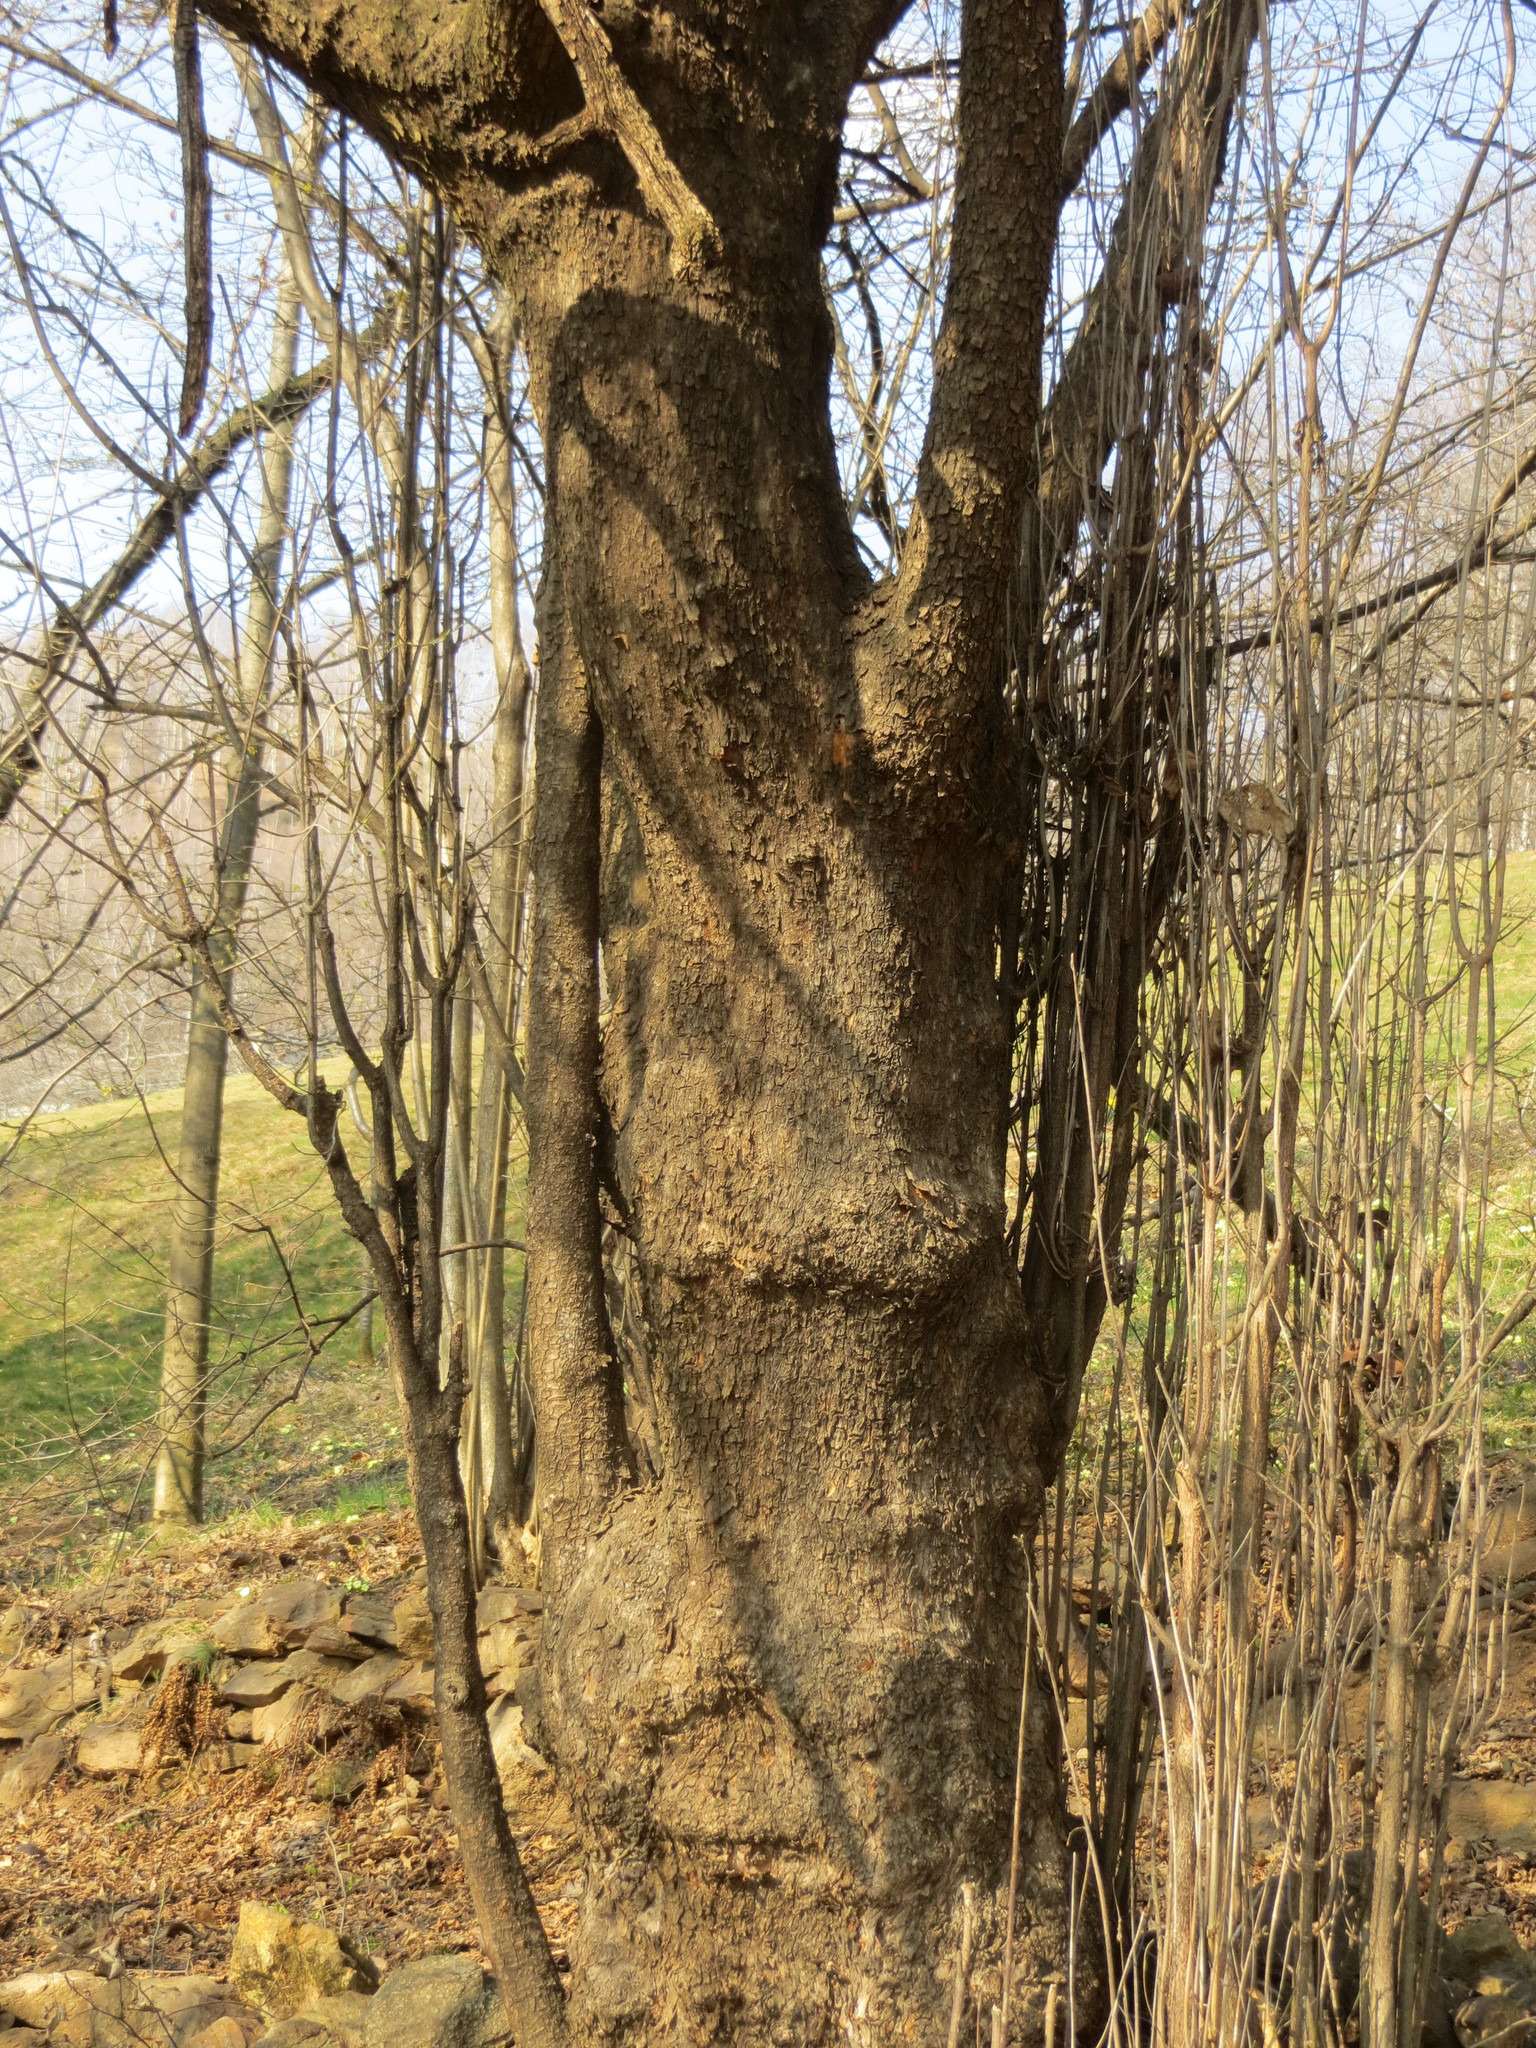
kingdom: Plantae
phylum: Tracheophyta
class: Magnoliopsida
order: Cornales
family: Cornaceae
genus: Cornus
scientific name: Cornus mas
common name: Cornelian-cherry
